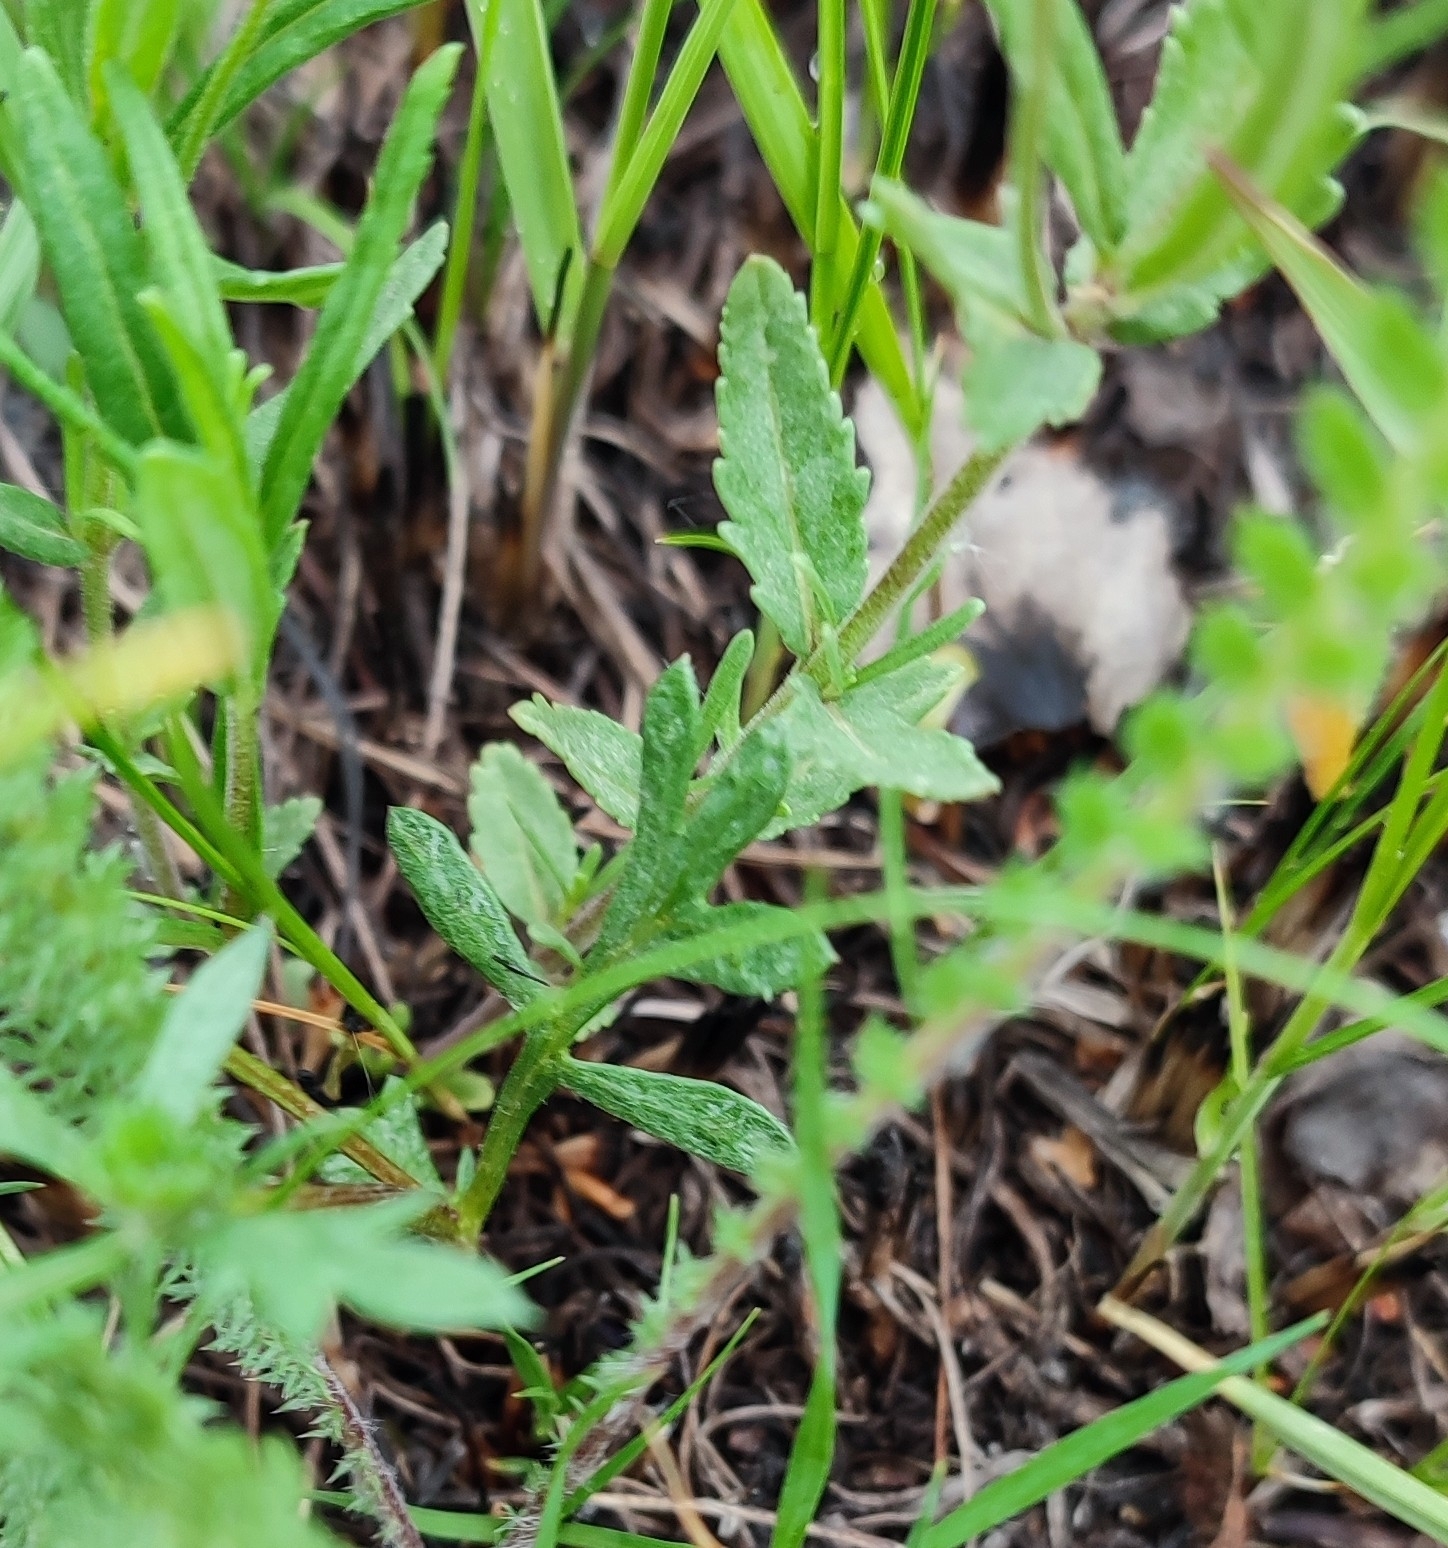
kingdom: Plantae
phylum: Tracheophyta
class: Magnoliopsida
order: Lamiales
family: Plantaginaceae
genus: Veronica
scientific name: Veronica prostrata
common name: Prostrate speedwell
